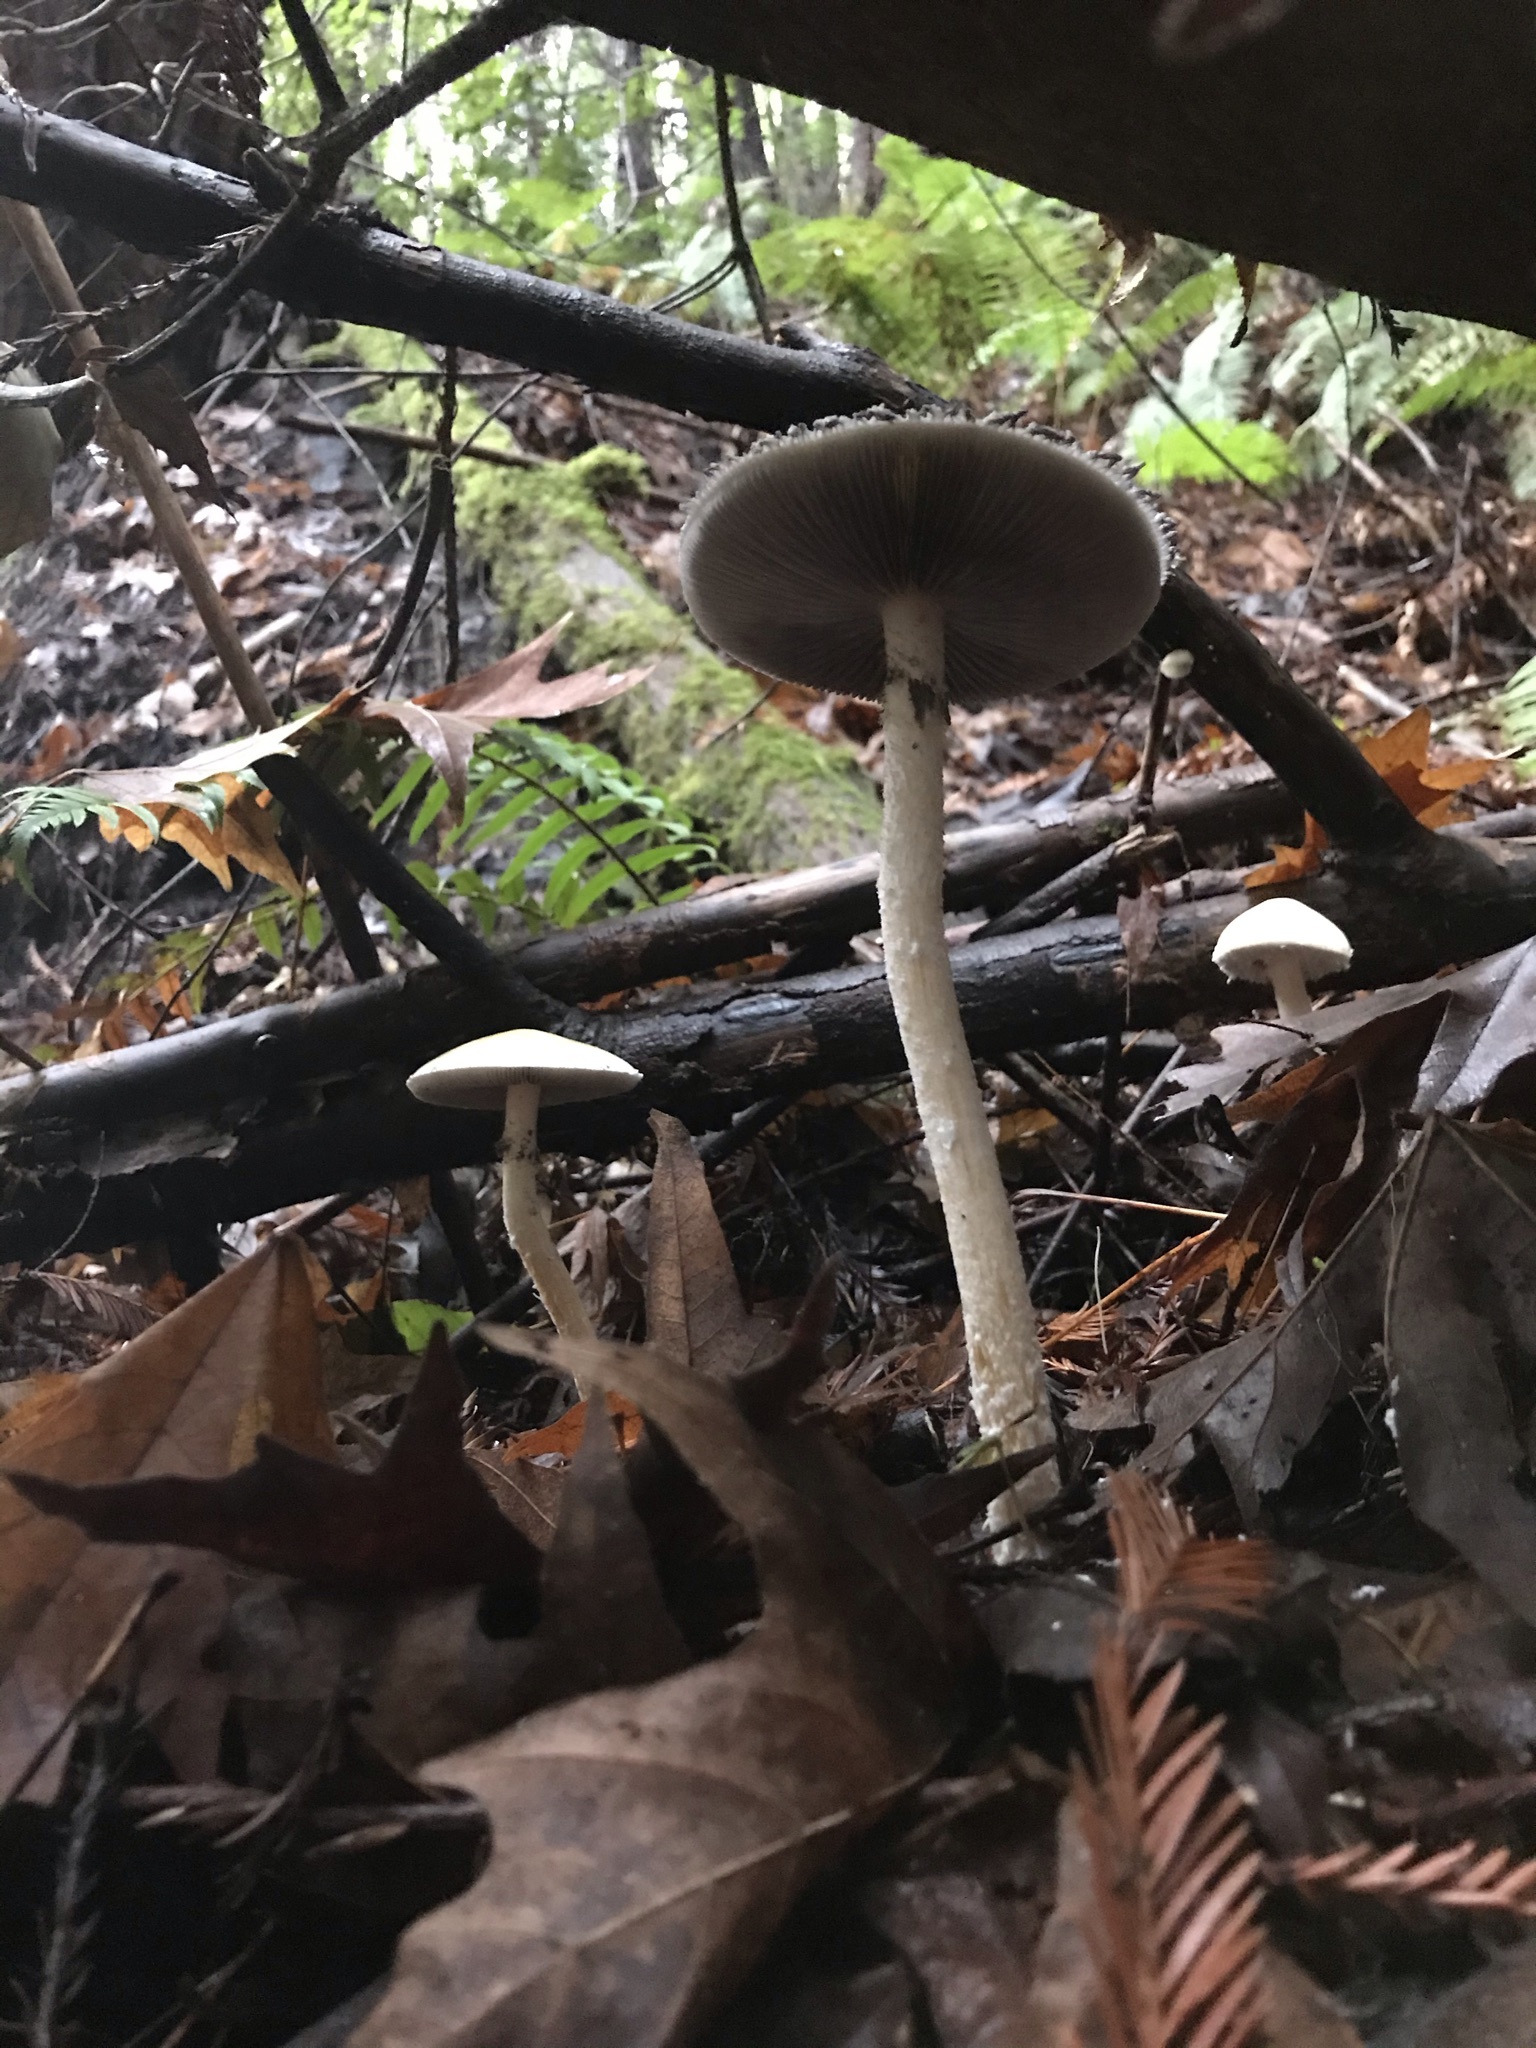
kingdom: Fungi
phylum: Basidiomycota
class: Agaricomycetes
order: Agaricales
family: Strophariaceae
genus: Stropharia
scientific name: Stropharia ambigua
